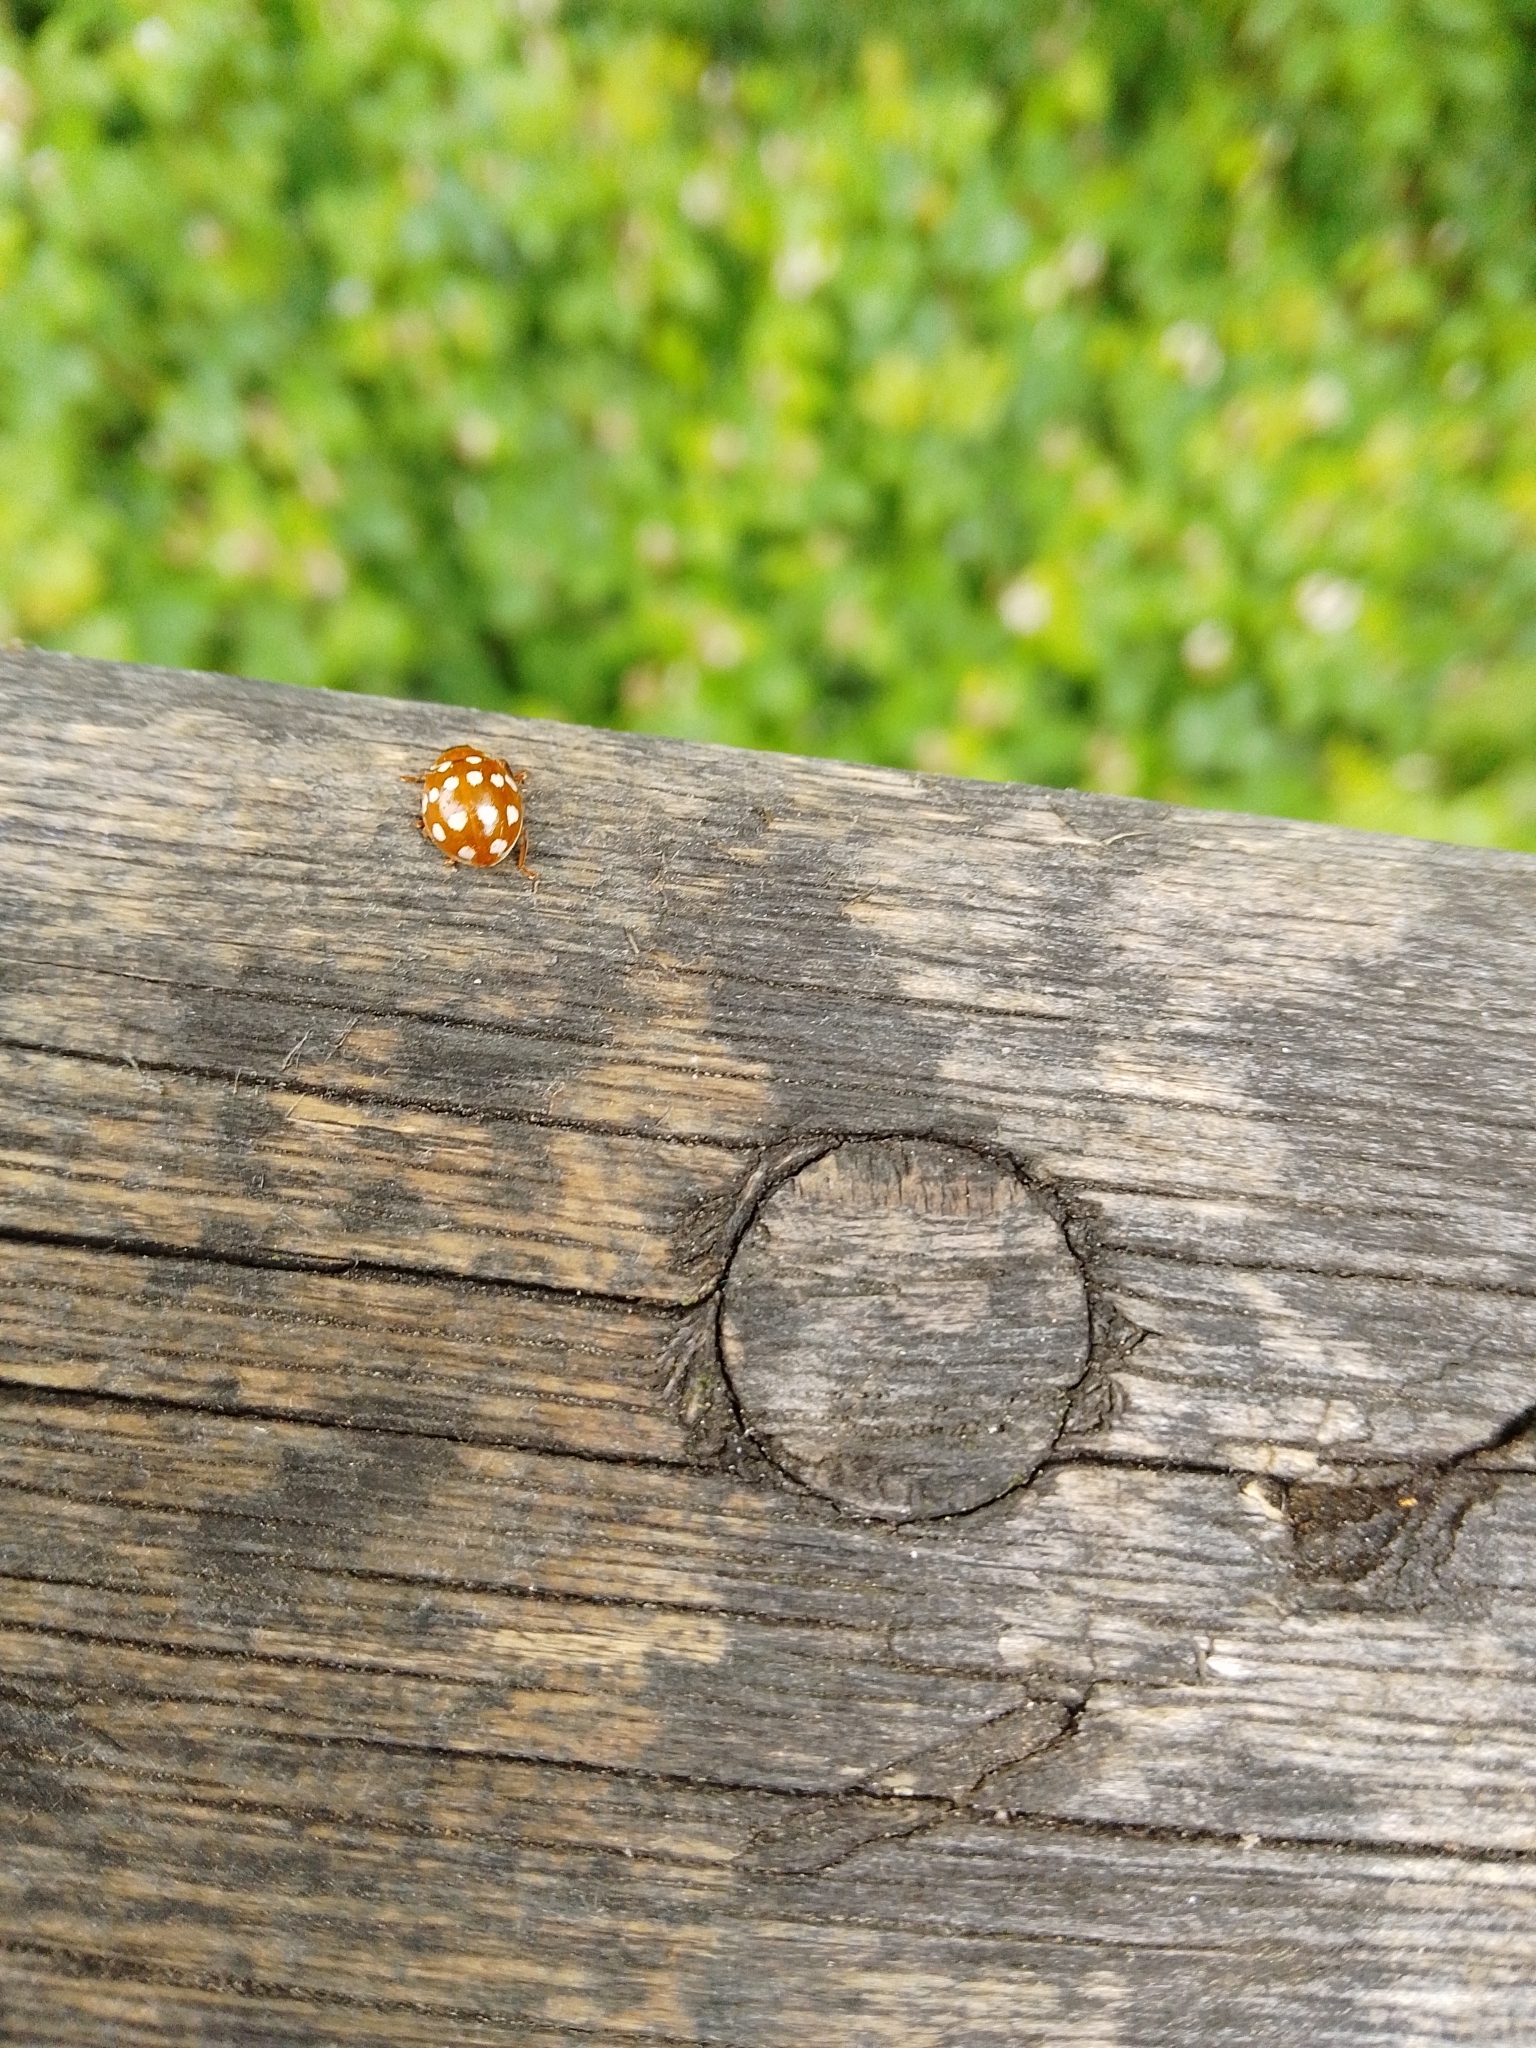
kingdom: Animalia
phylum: Arthropoda
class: Insecta
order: Coleoptera
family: Coccinellidae
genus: Calvia
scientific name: Calvia quatuordecimguttata
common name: Cream-spot ladybird
